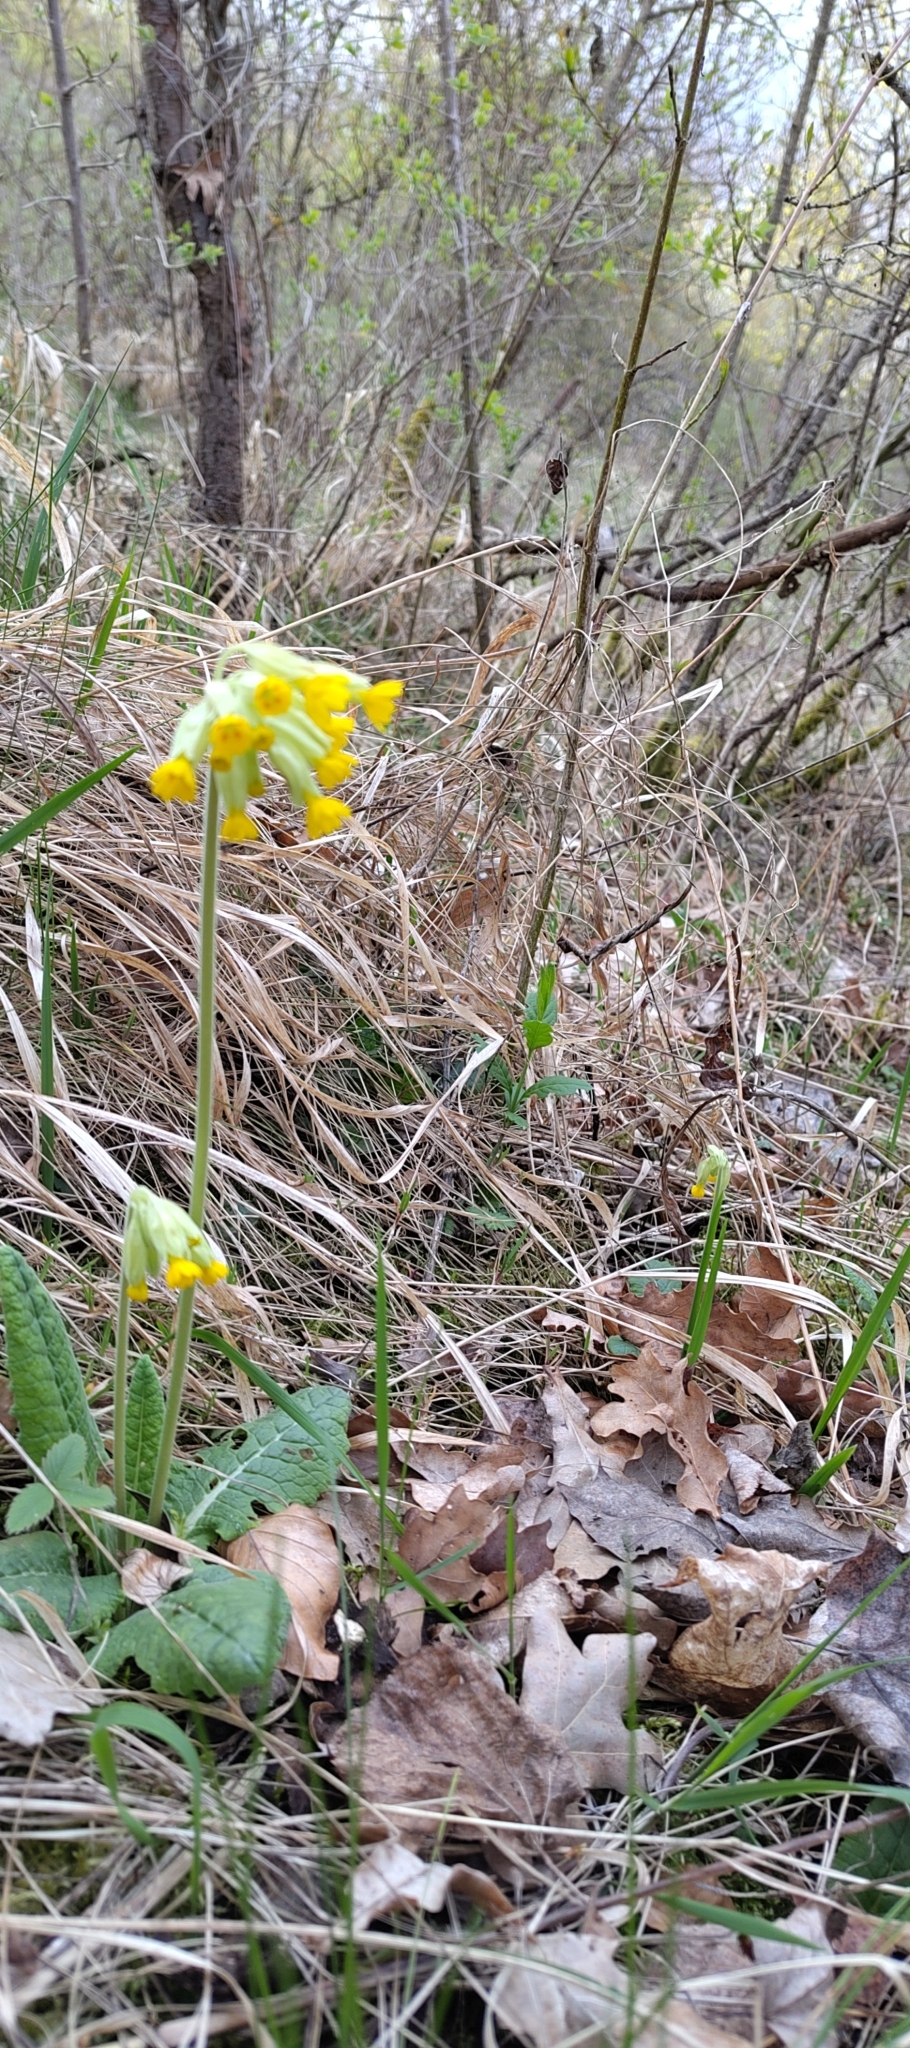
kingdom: Plantae
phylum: Tracheophyta
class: Magnoliopsida
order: Ericales
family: Primulaceae
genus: Primula
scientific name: Primula veris
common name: Cowslip
